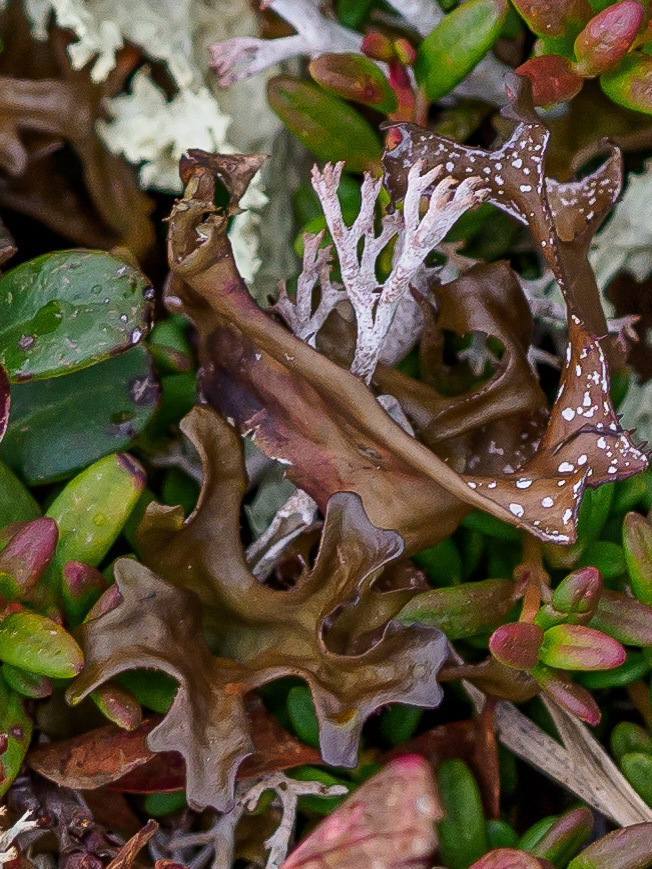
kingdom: Fungi
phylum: Ascomycota
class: Lecanoromycetes
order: Lecanorales
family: Parmeliaceae
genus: Cetraria
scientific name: Cetraria islandica
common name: Iceland lichen
